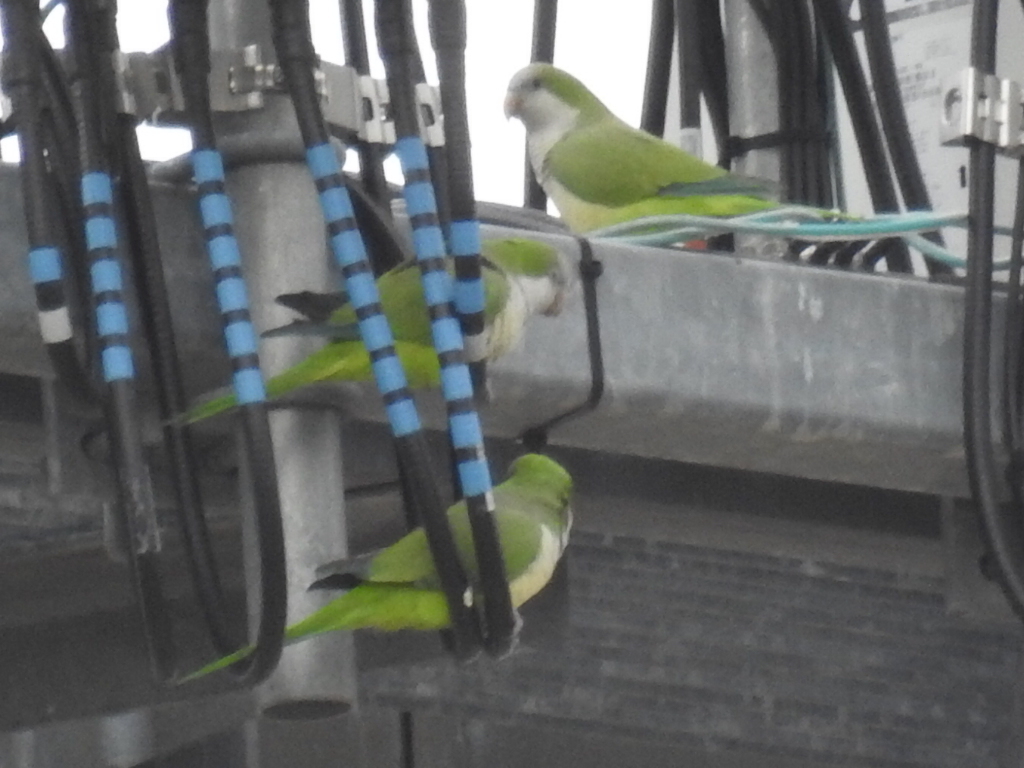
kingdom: Animalia
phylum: Chordata
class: Aves
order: Psittaciformes
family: Psittacidae
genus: Myiopsitta
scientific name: Myiopsitta monachus
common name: Monk parakeet
